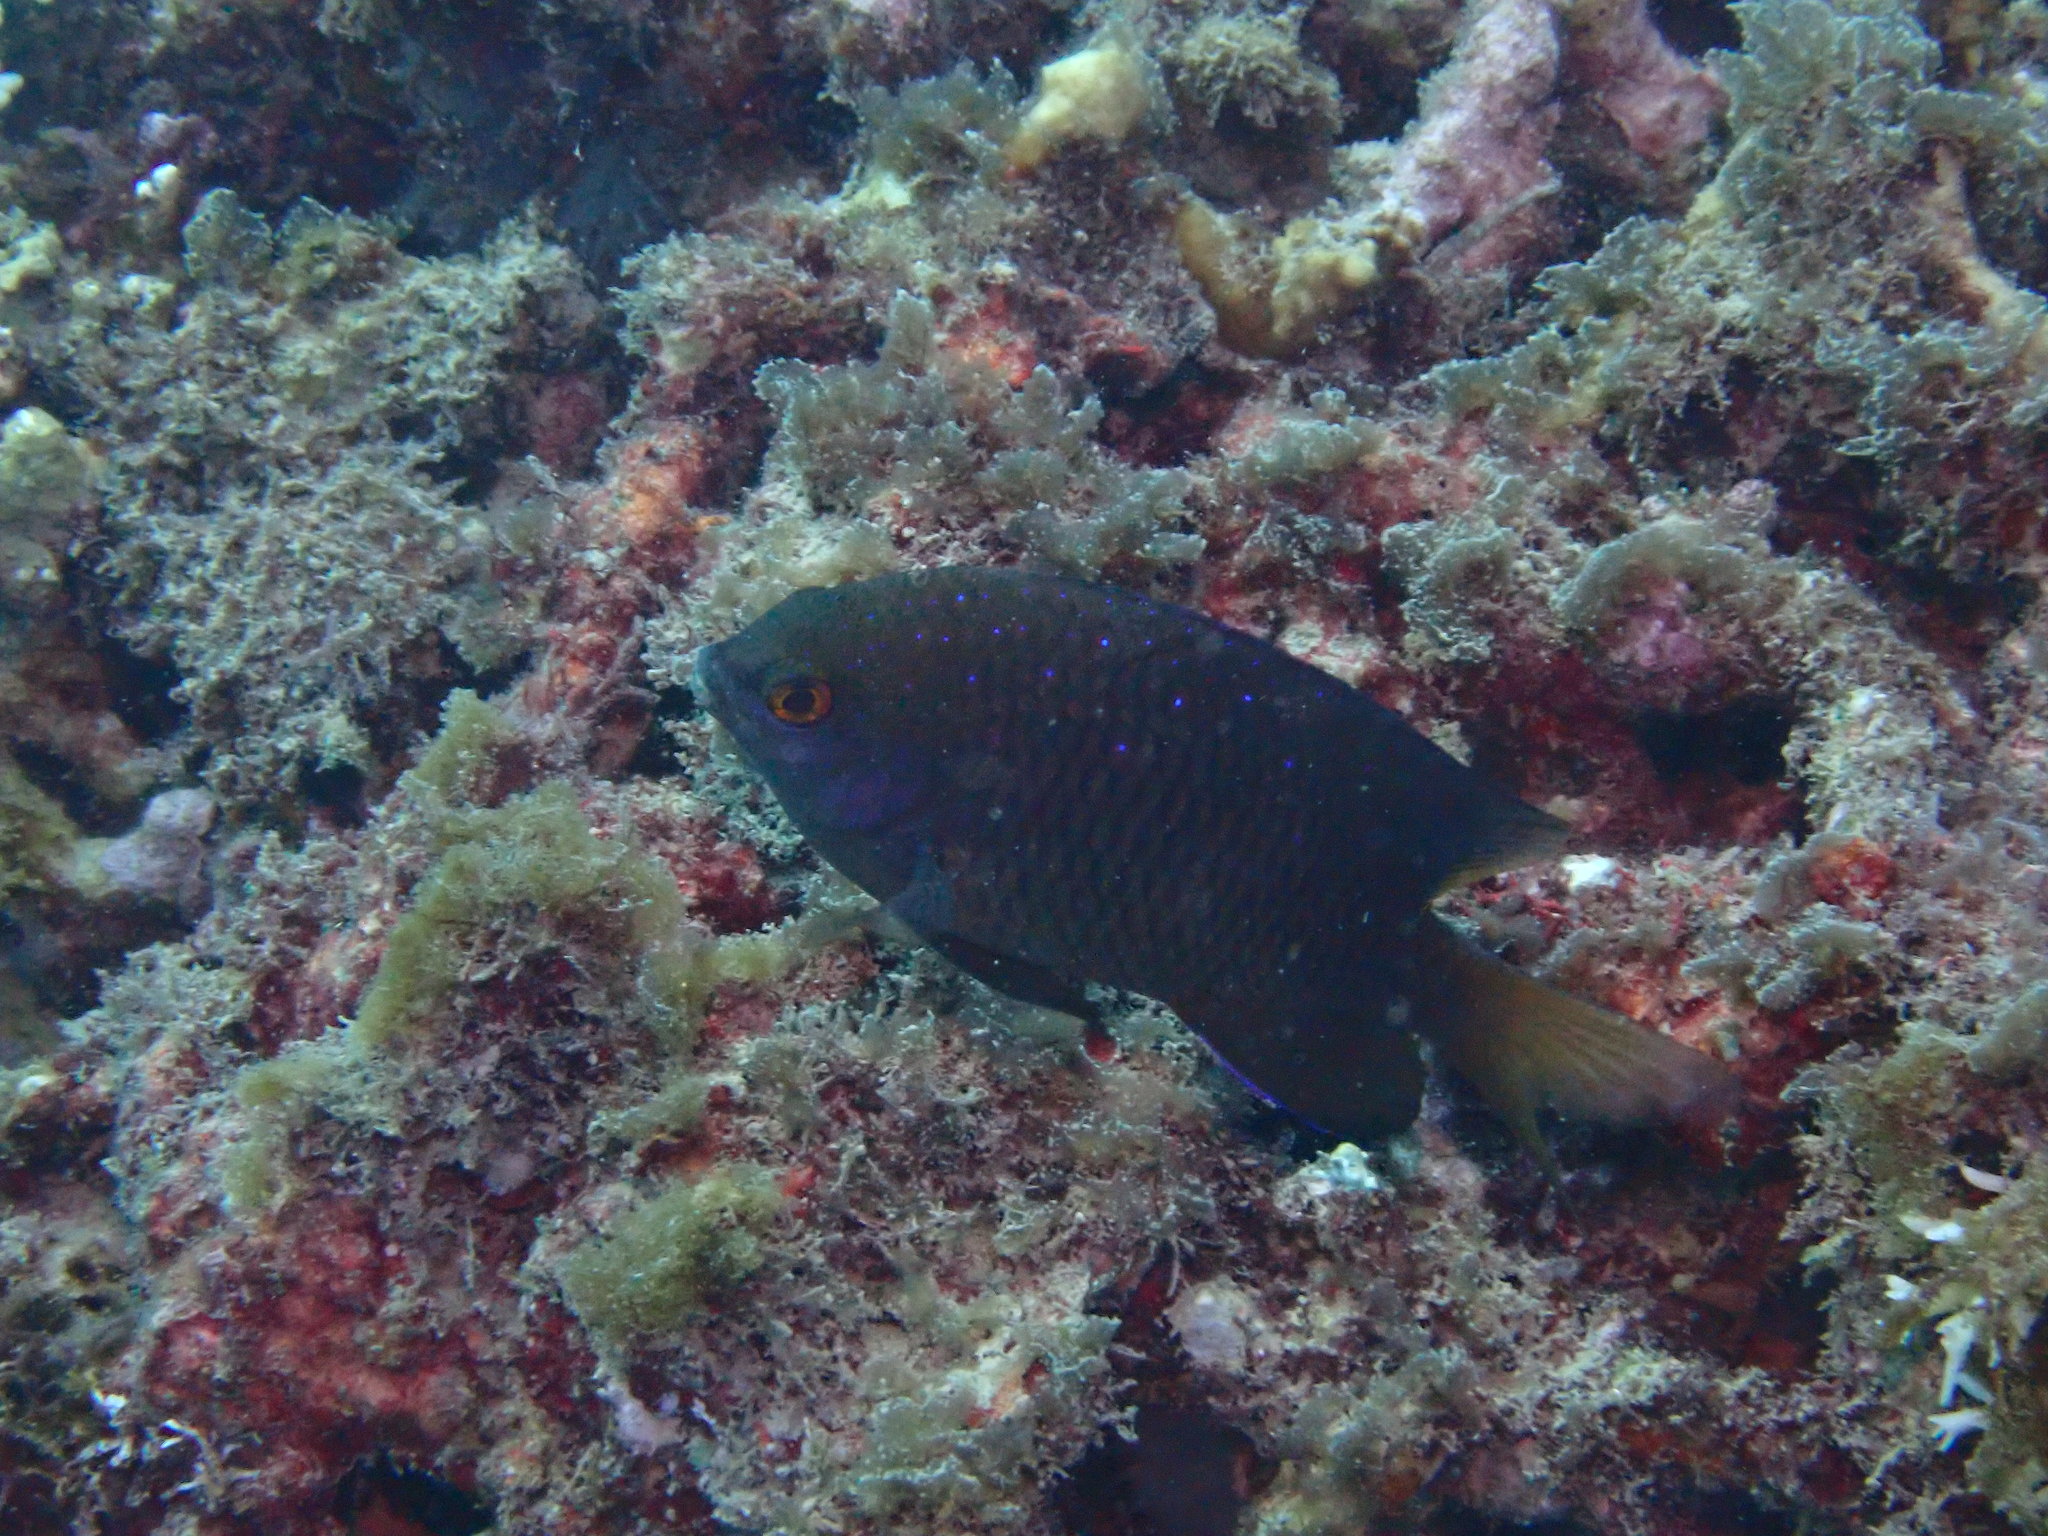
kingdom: Animalia
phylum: Chordata
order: Perciformes
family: Pomacentridae
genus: Plectroglyphidodon
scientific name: Plectroglyphidodon lacrymatus
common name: Jewel damsel
